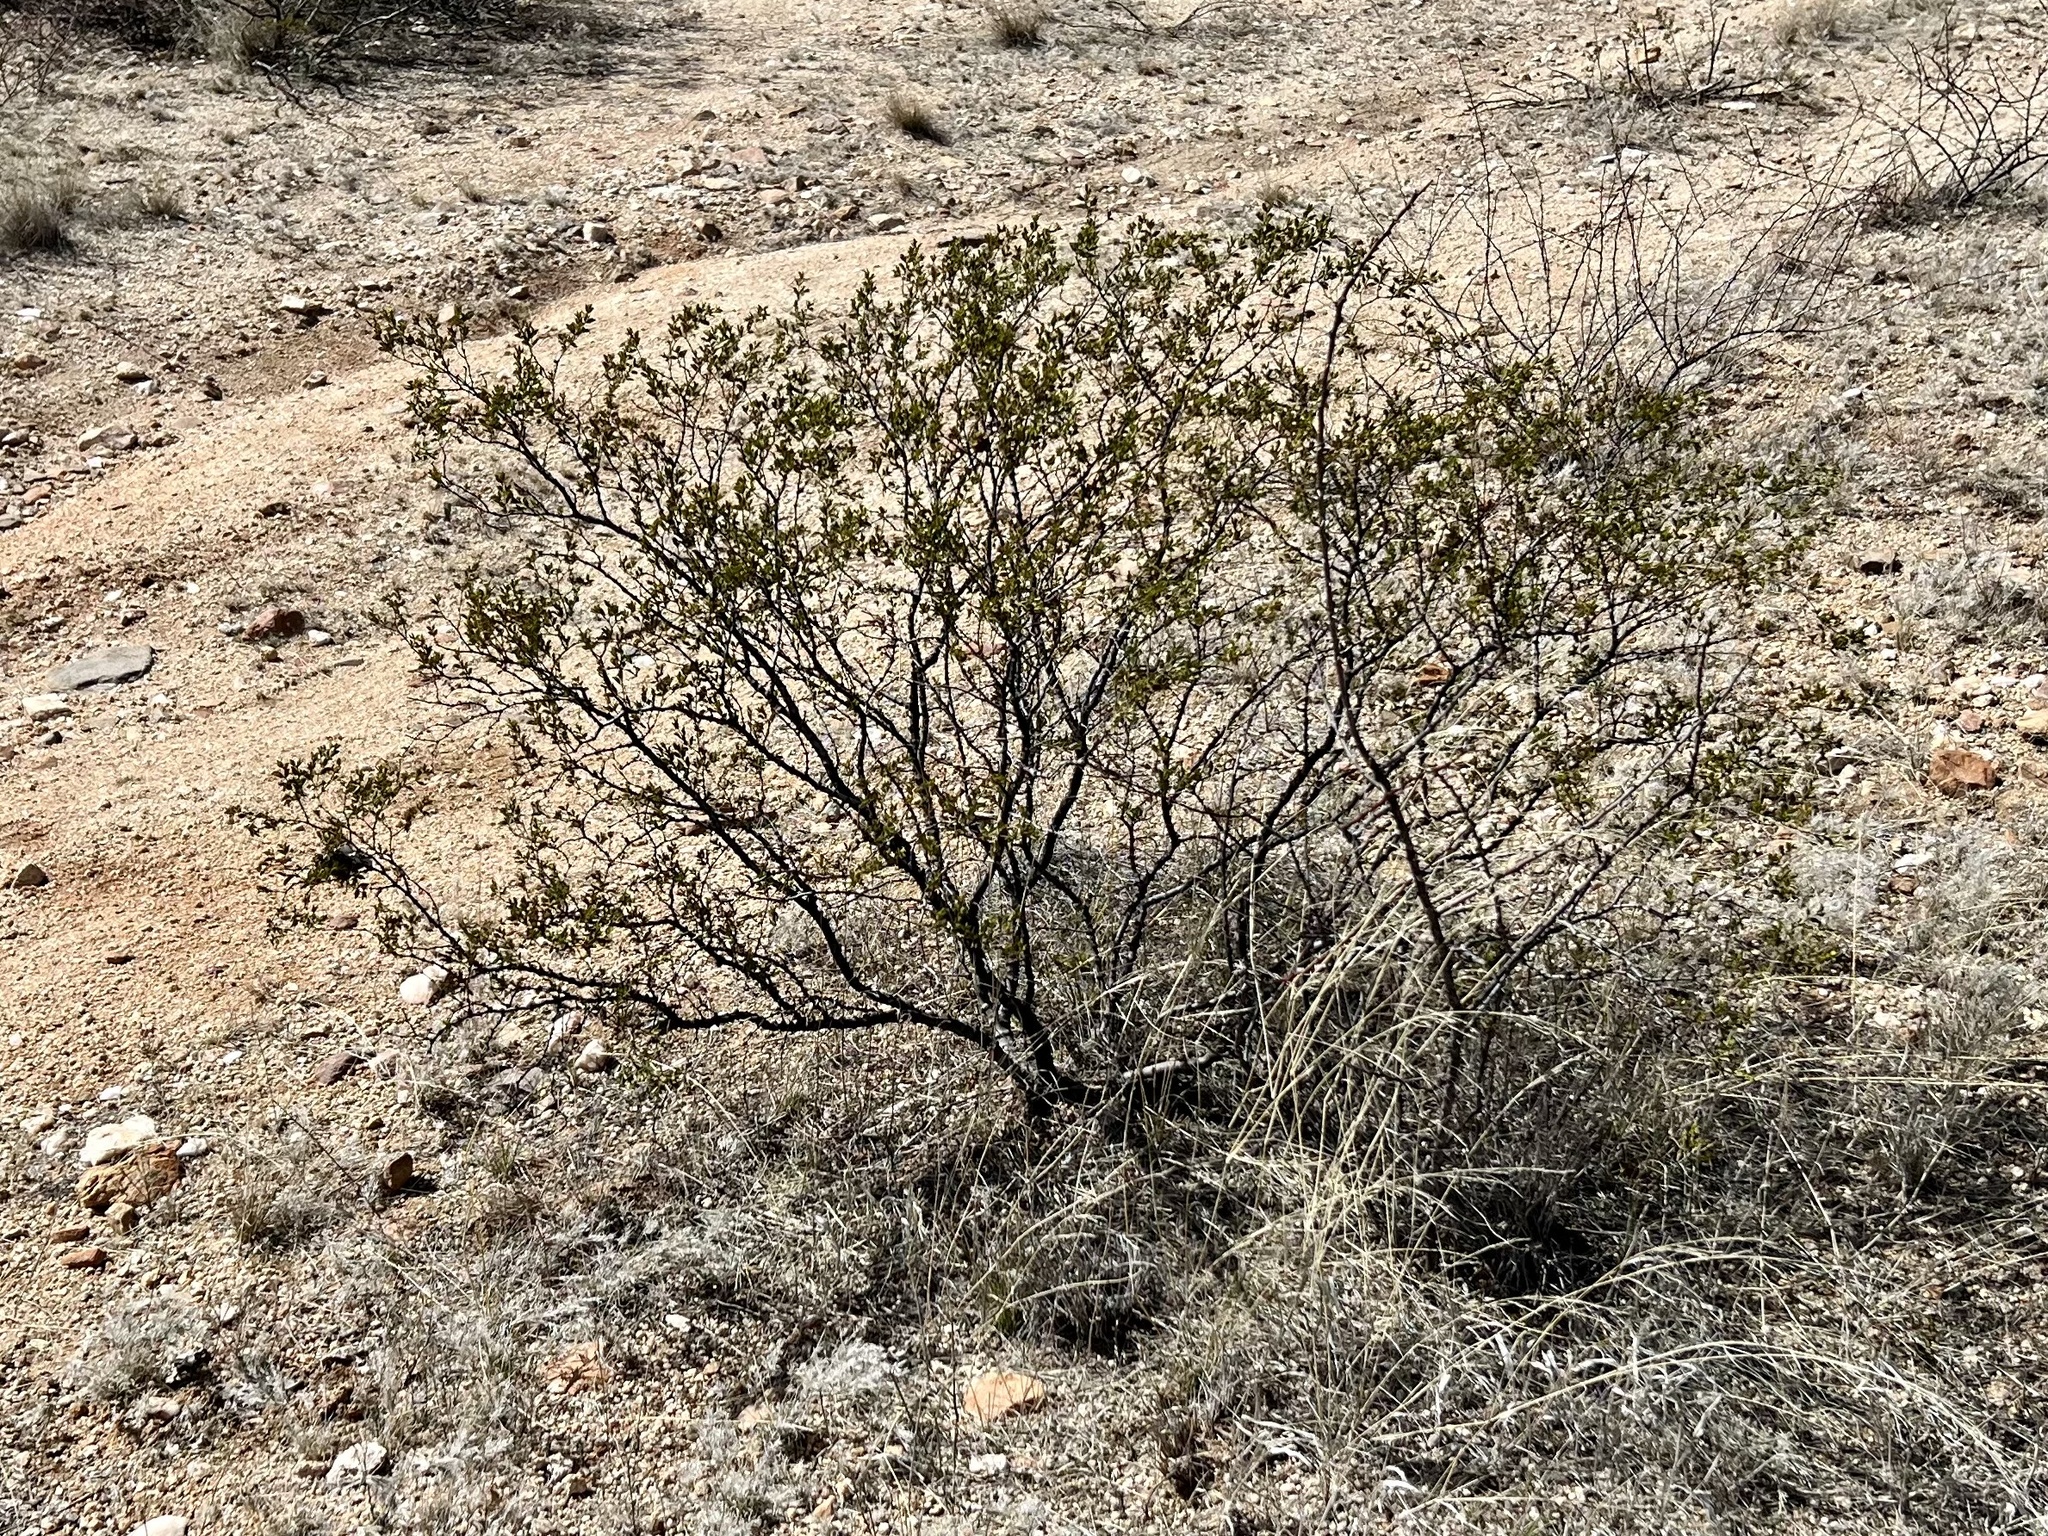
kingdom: Plantae
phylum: Tracheophyta
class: Magnoliopsida
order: Zygophyllales
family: Zygophyllaceae
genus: Larrea
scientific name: Larrea tridentata
